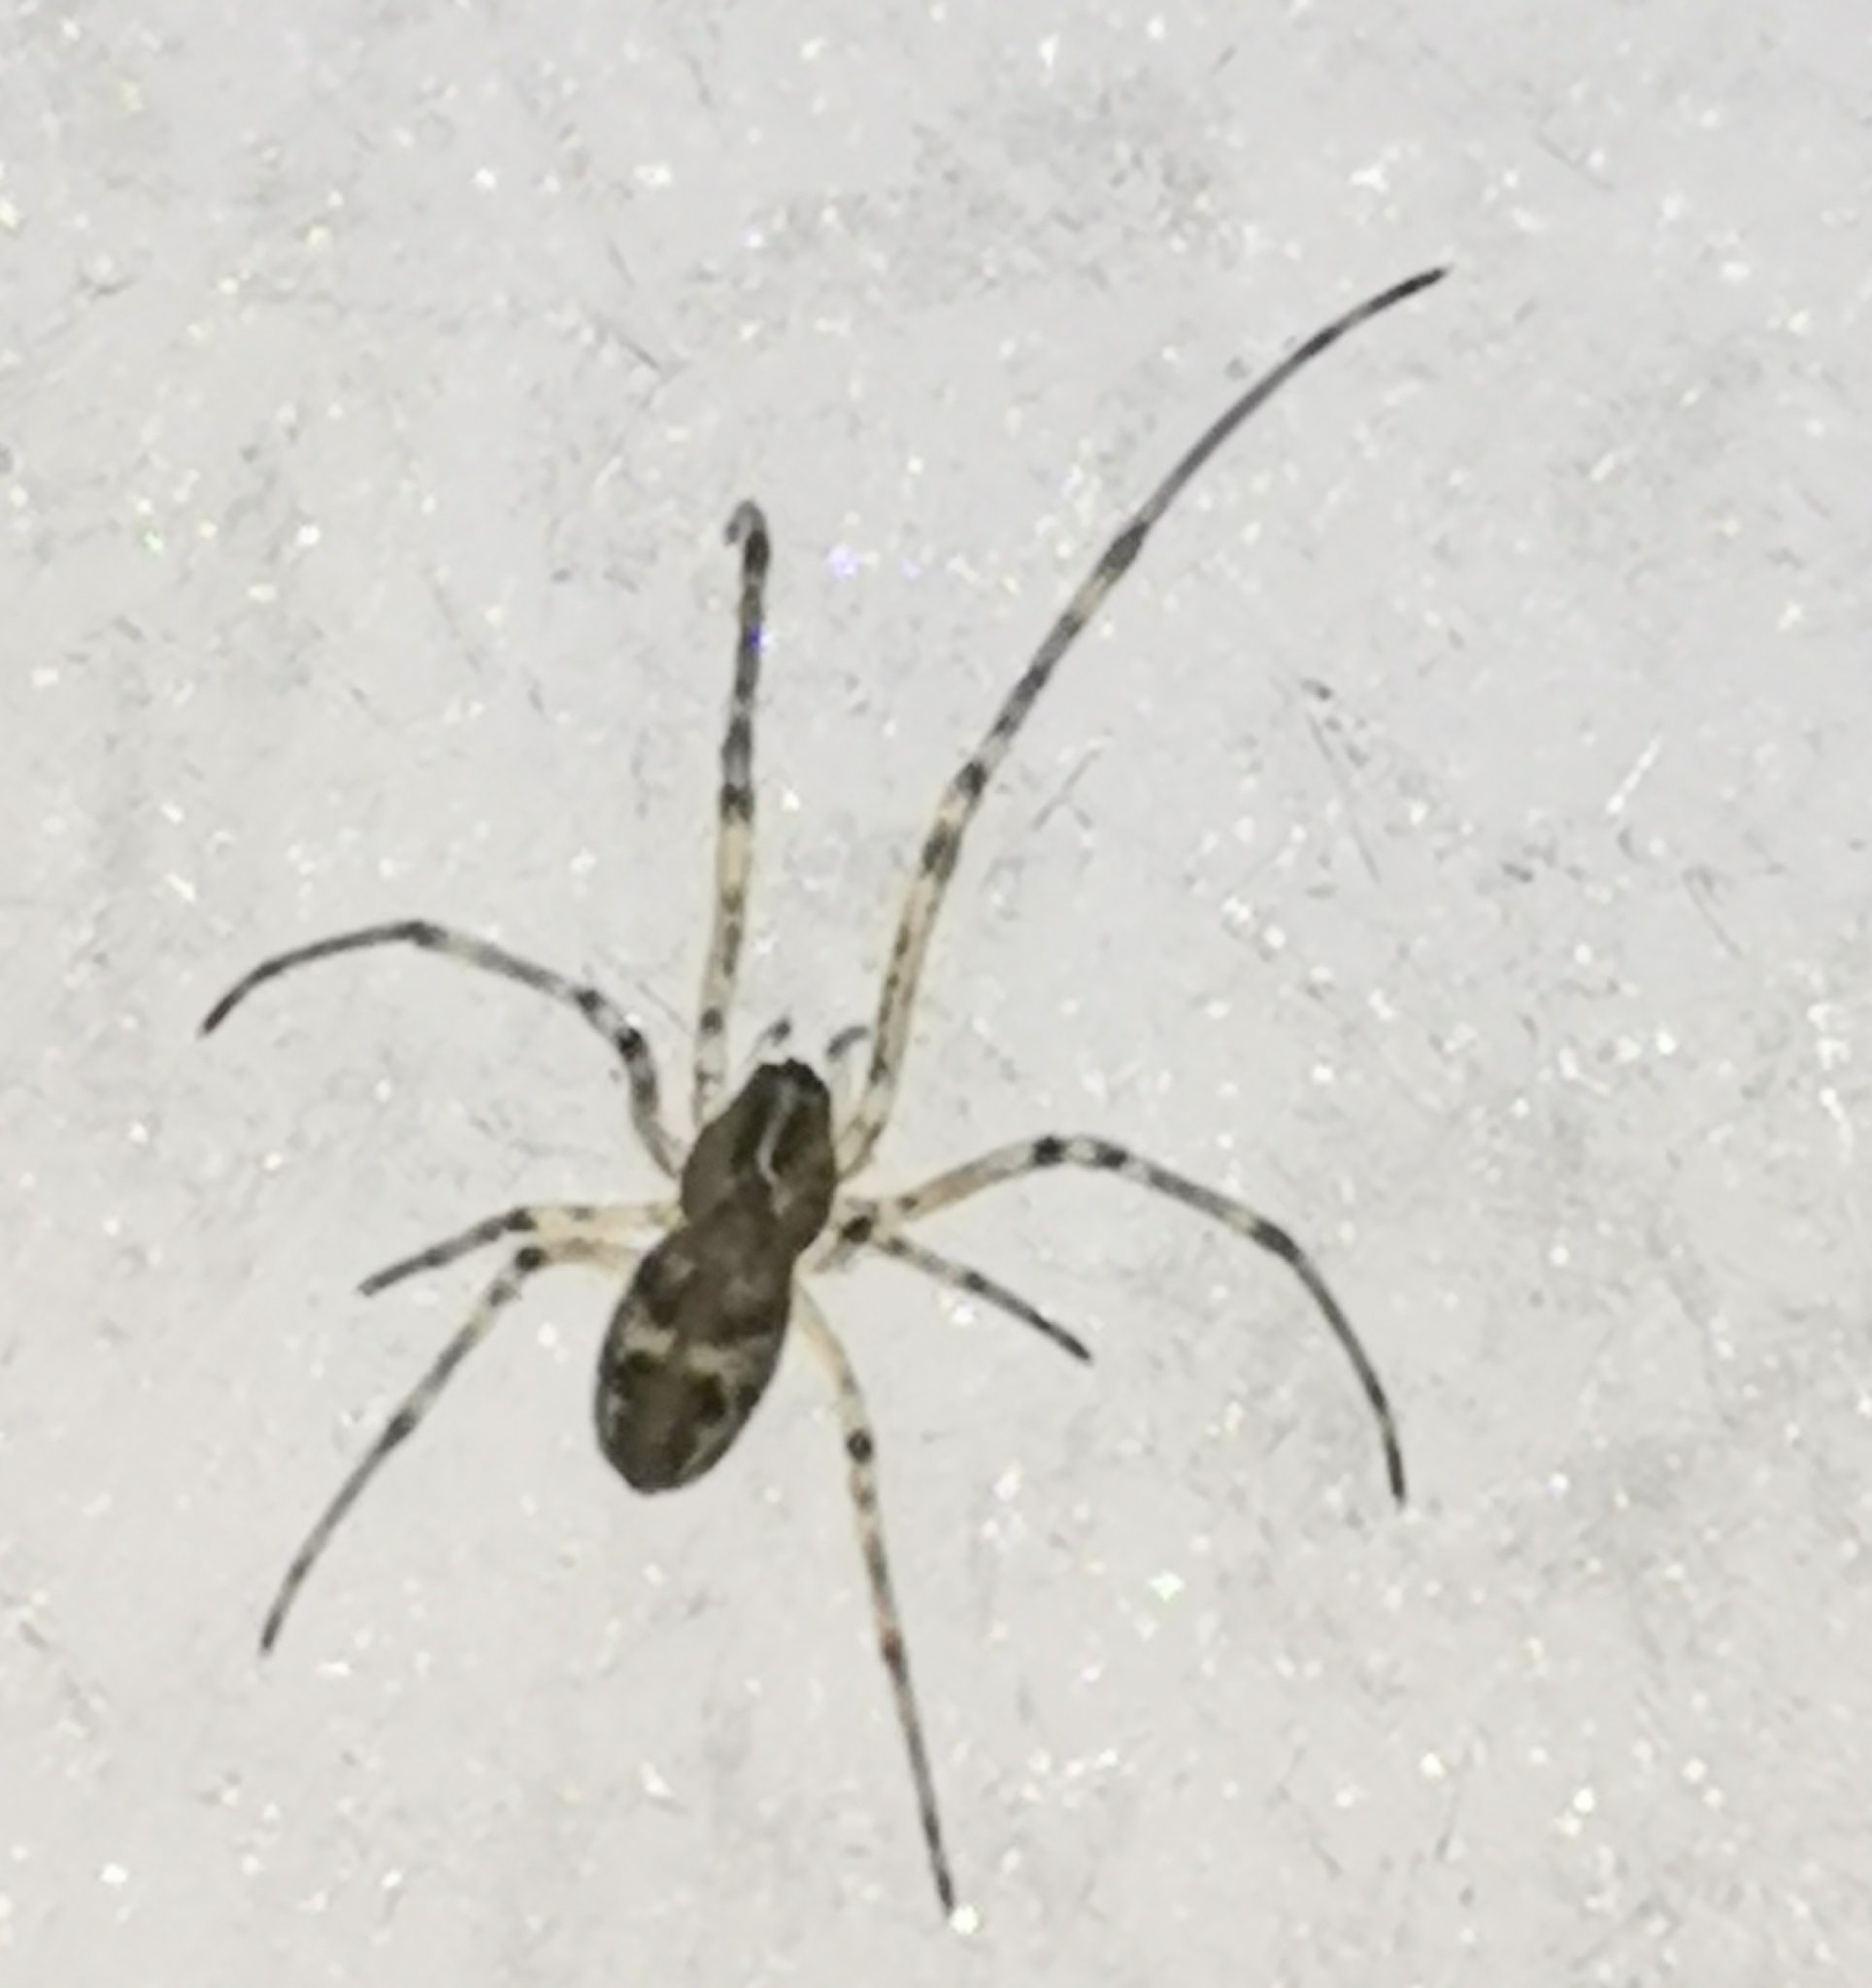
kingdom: Animalia
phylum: Arthropoda
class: Arachnida
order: Araneae
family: Tetragnathidae
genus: Tetragnatha
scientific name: Tetragnatha obtusa
